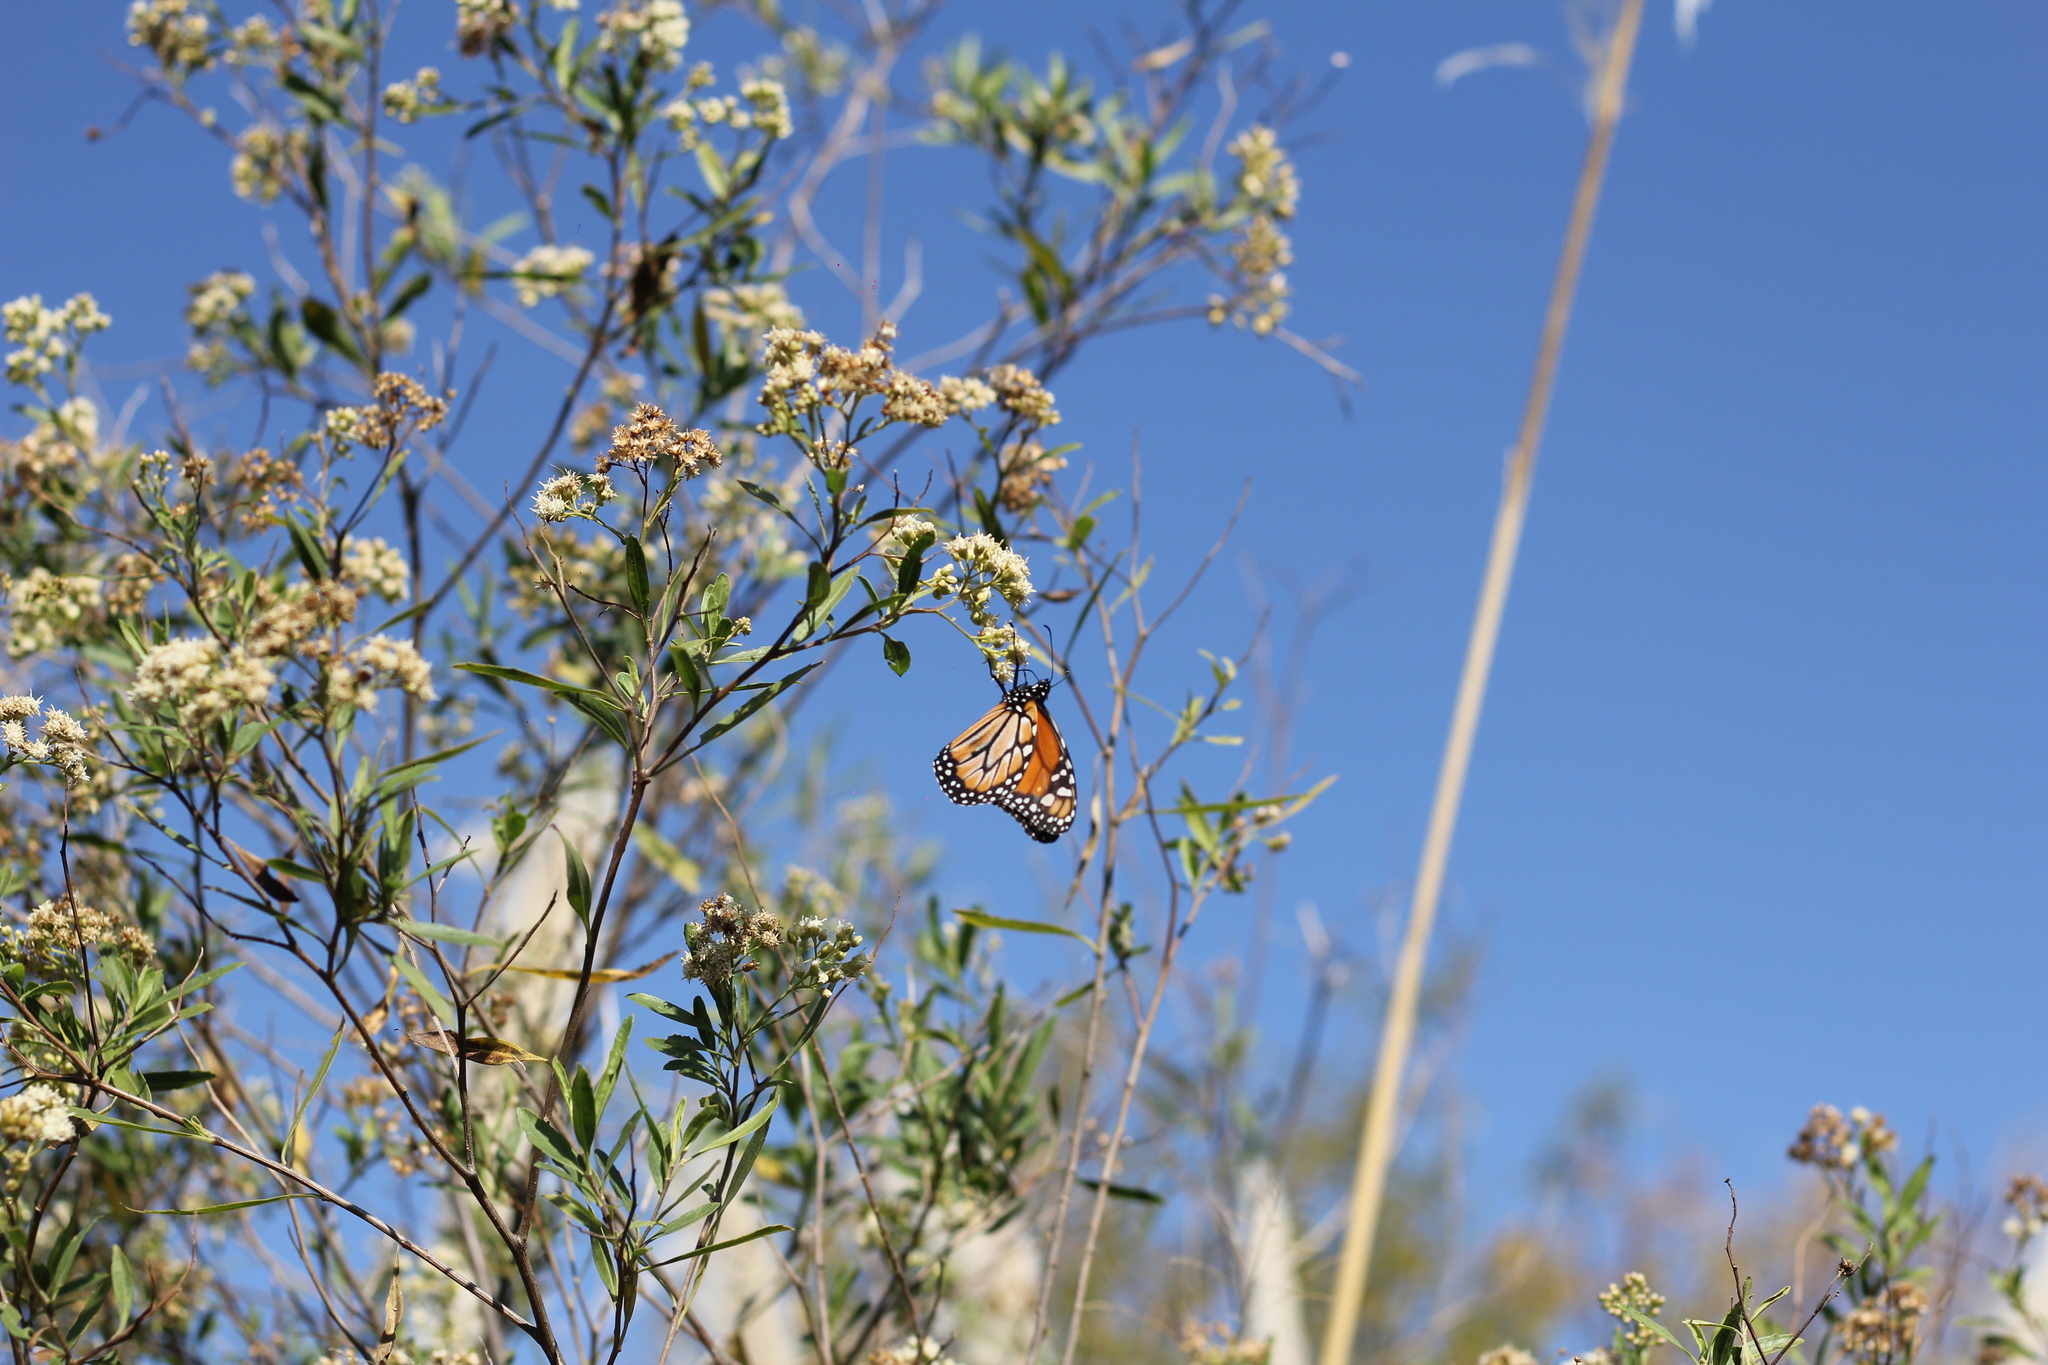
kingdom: Animalia
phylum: Arthropoda
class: Insecta
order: Lepidoptera
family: Nymphalidae
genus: Danaus
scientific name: Danaus erippus
